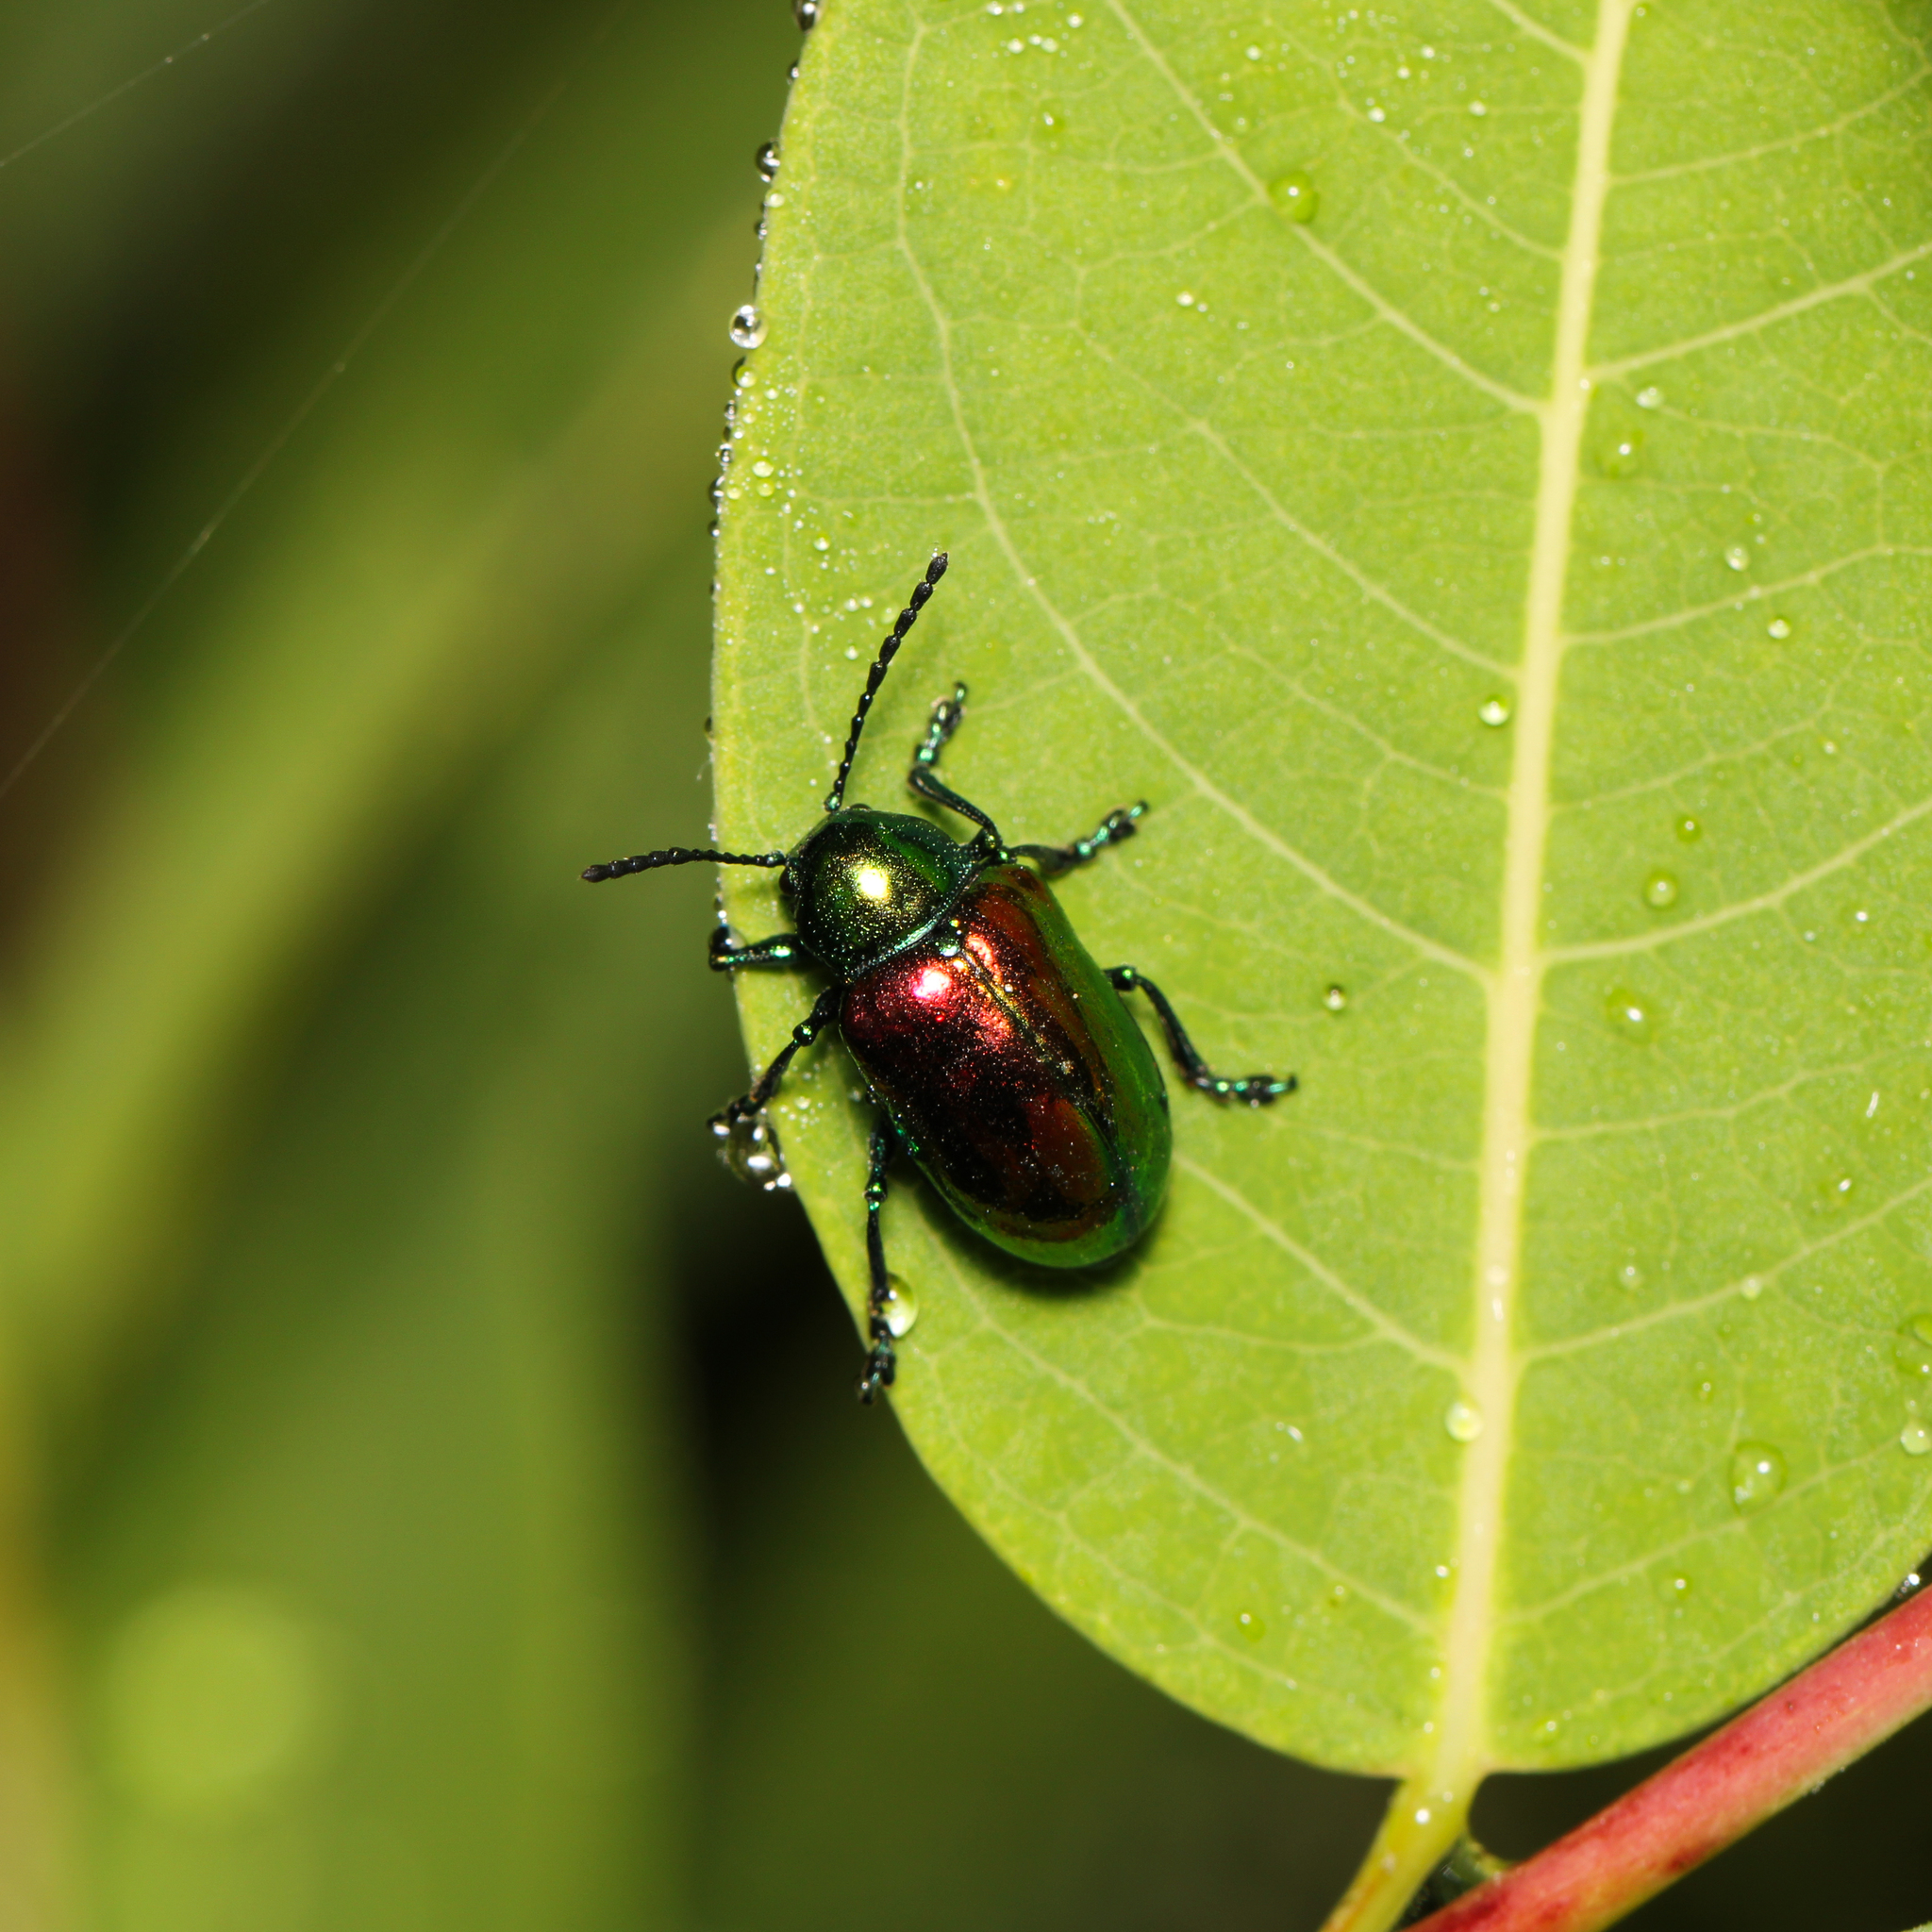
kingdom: Animalia
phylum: Arthropoda
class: Insecta
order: Coleoptera
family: Chrysomelidae
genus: Chrysochus
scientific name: Chrysochus auratus
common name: Dogbane leaf beetle
